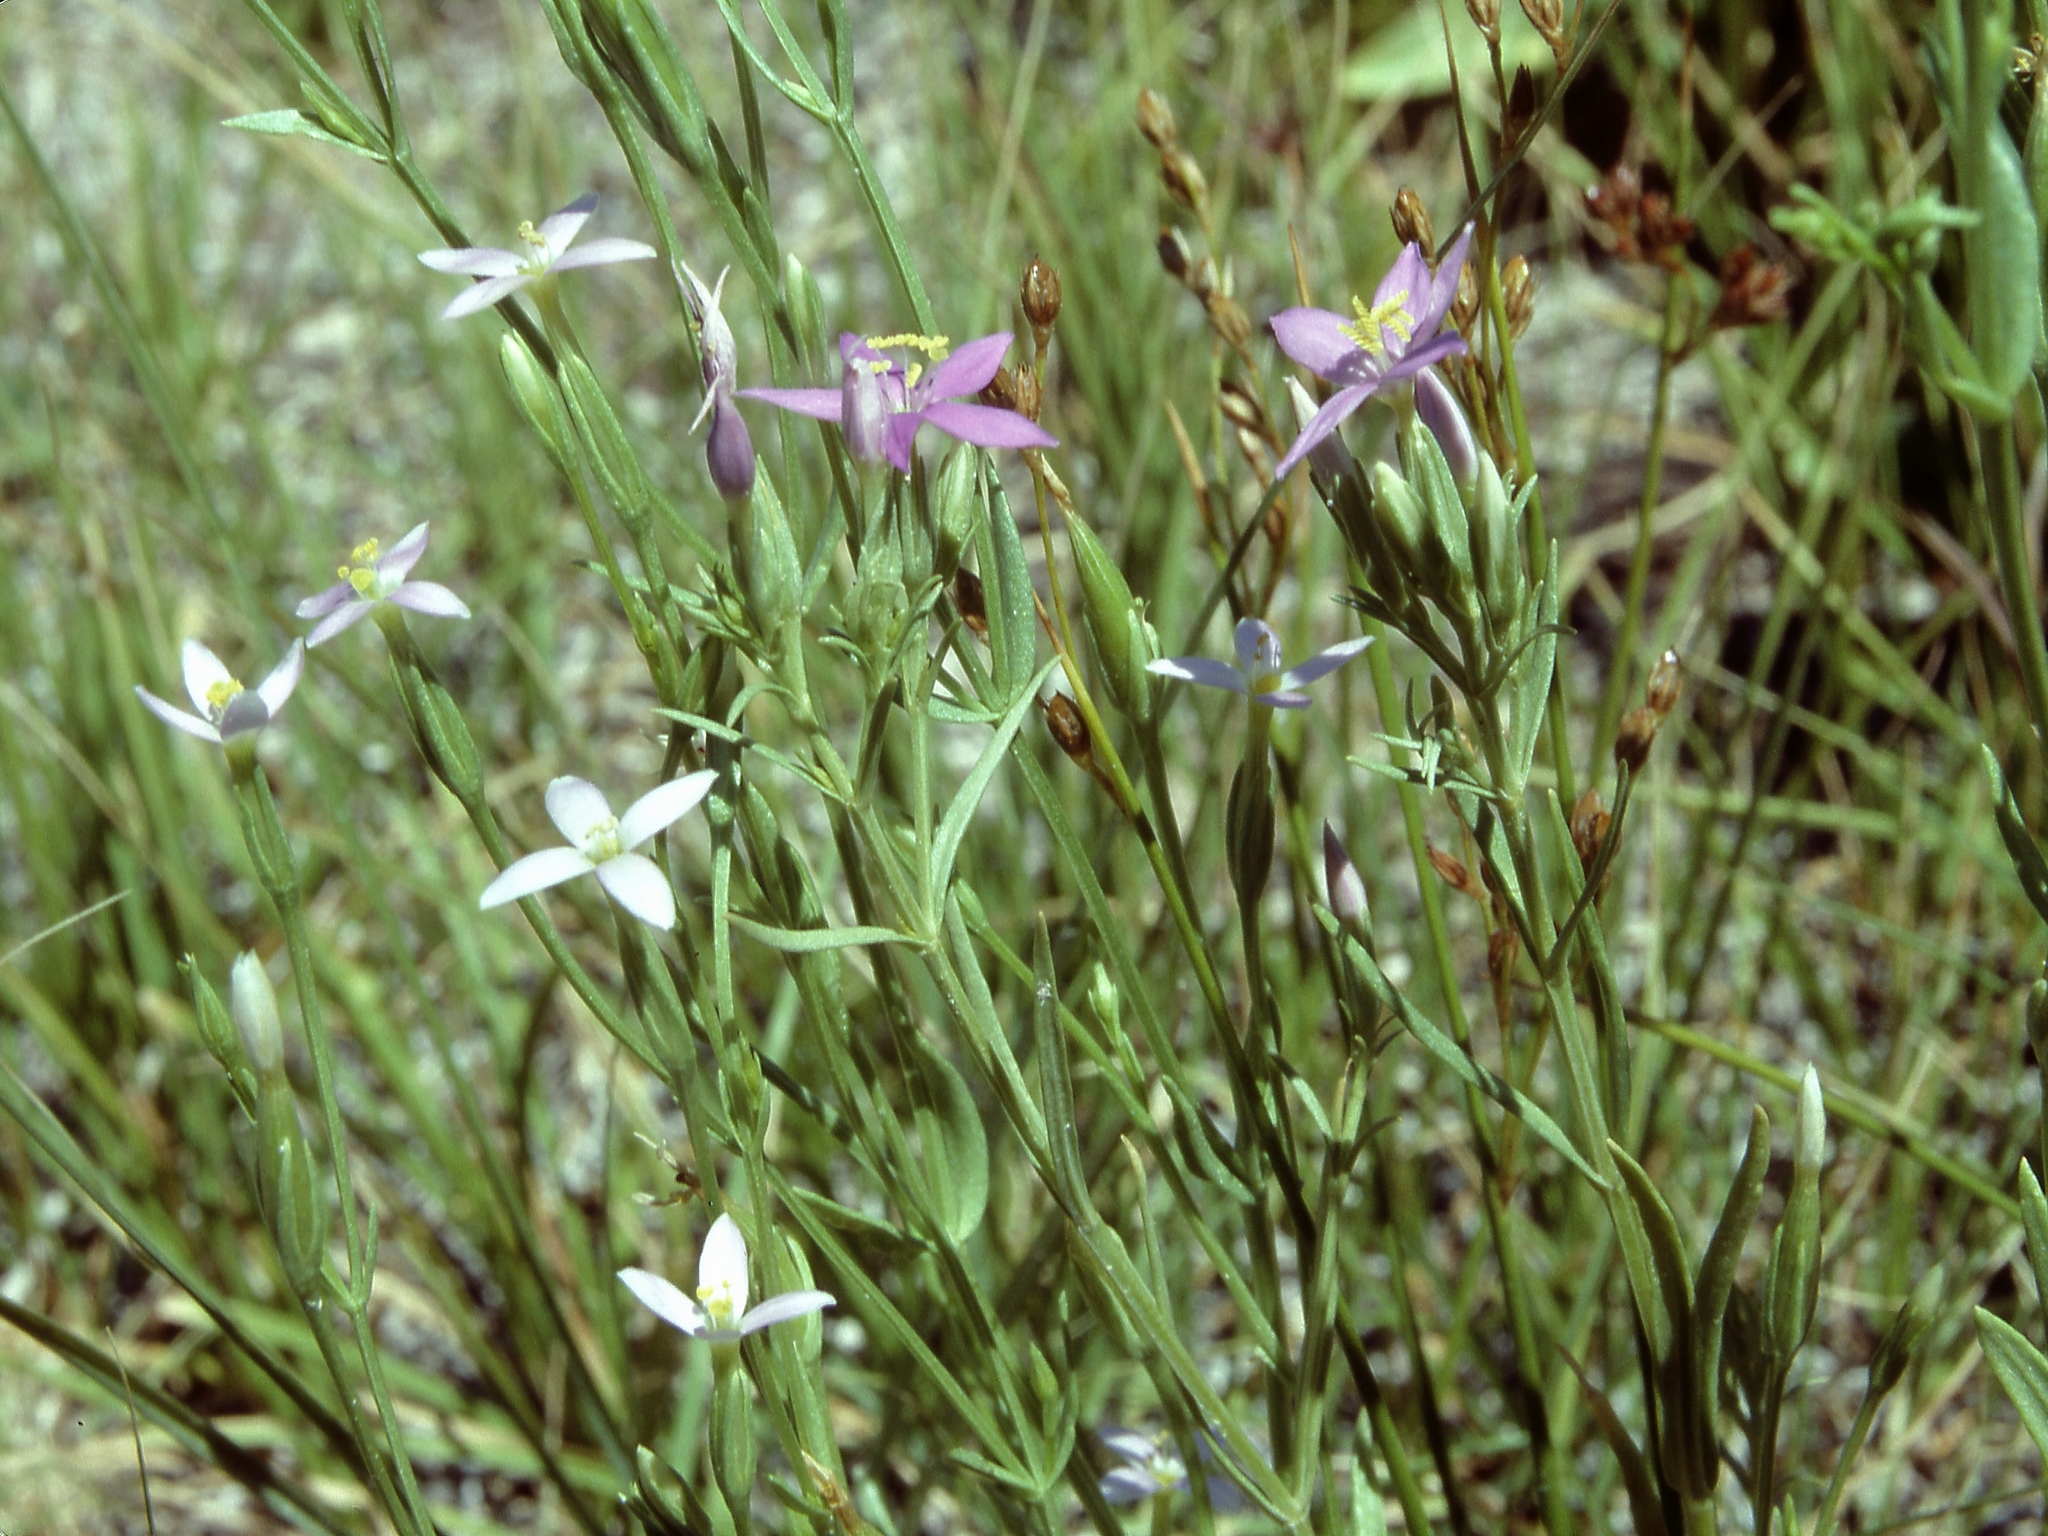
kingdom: Plantae
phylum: Tracheophyta
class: Magnoliopsida
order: Gentianales
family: Gentianaceae
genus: Zeltnera
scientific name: Zeltnera exaltata
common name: Great basin centaury
